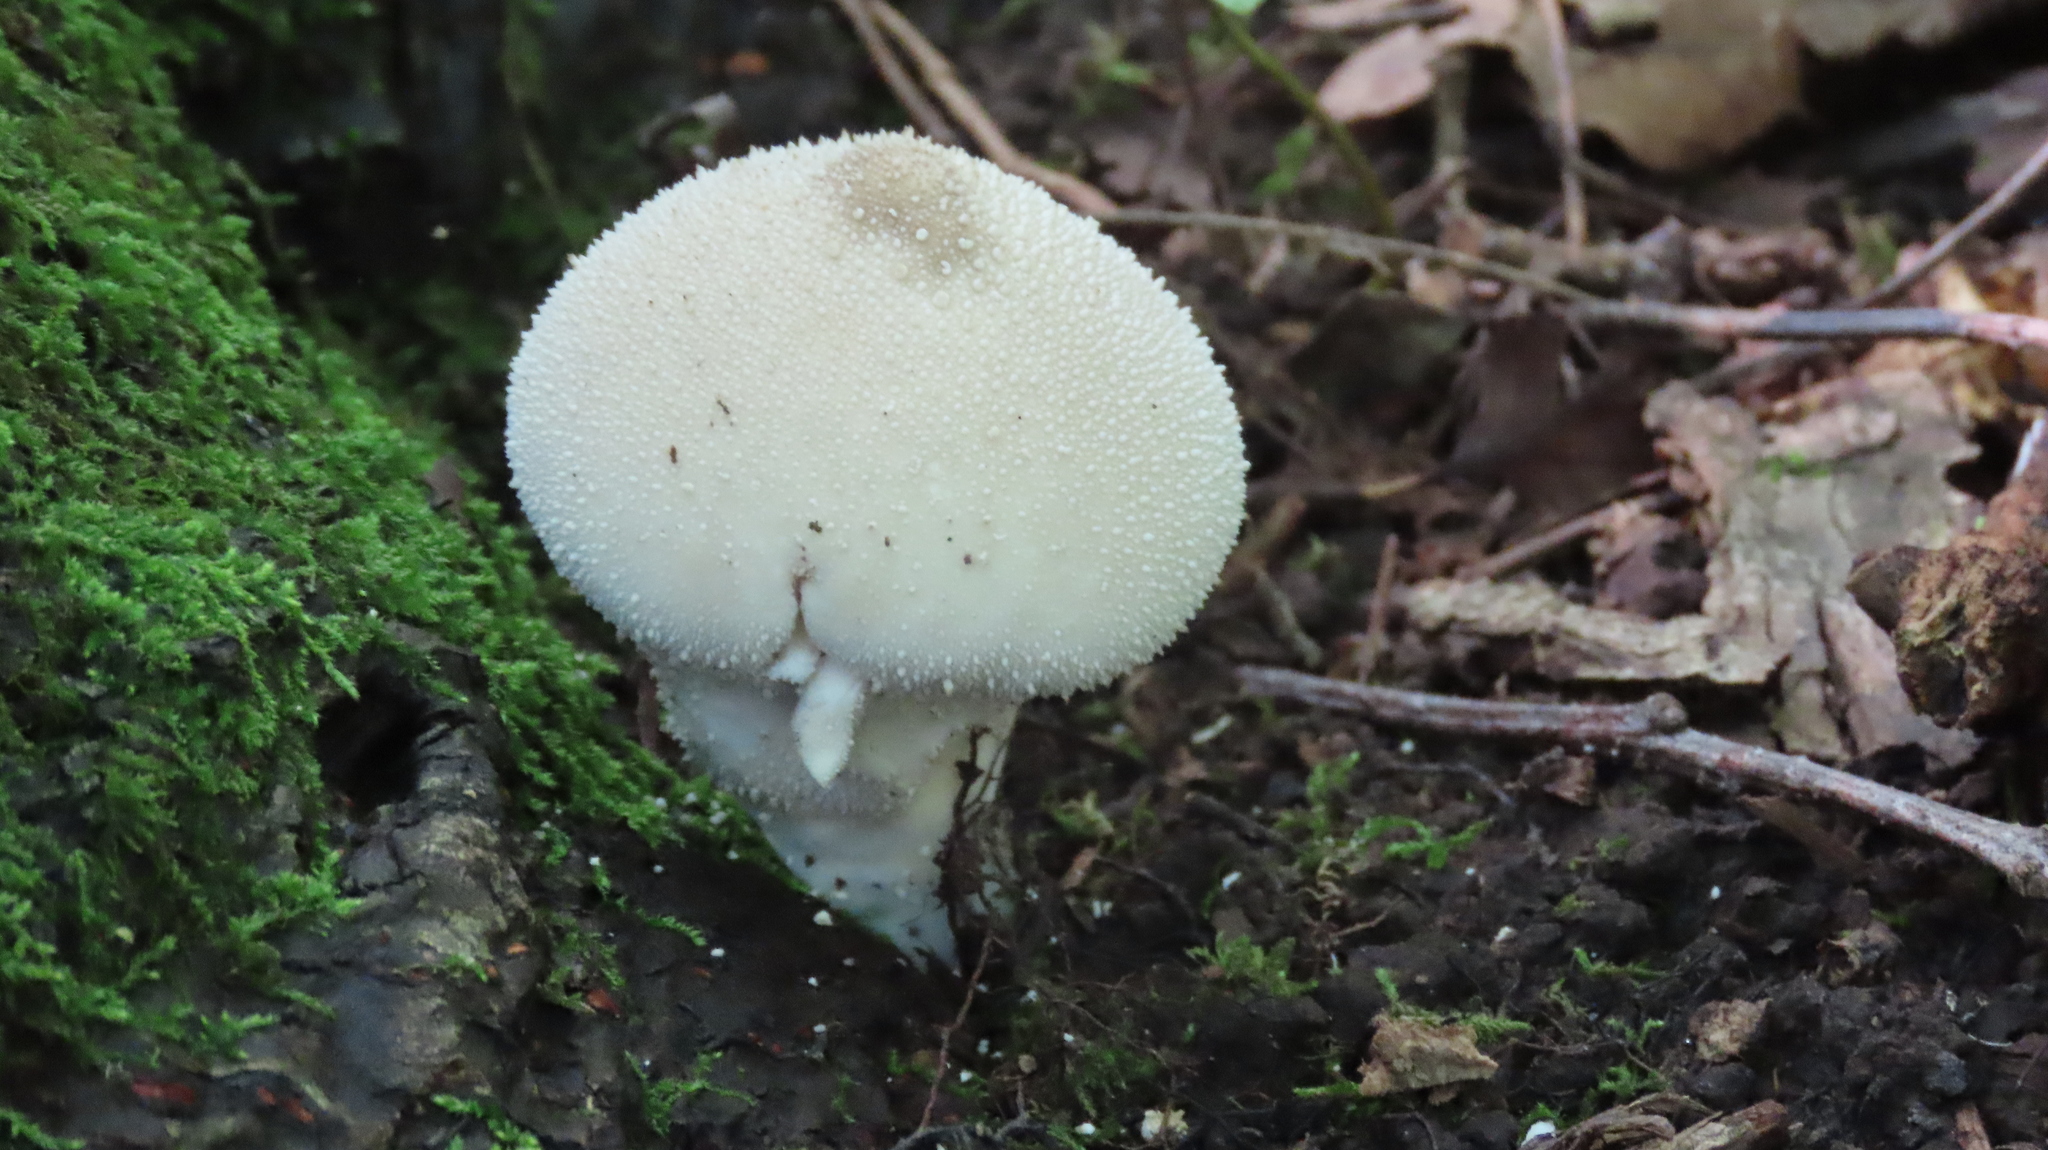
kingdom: Fungi
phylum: Basidiomycota
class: Agaricomycetes
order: Agaricales
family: Lycoperdaceae
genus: Lycoperdon
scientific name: Lycoperdon perlatum
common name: Common puffball
